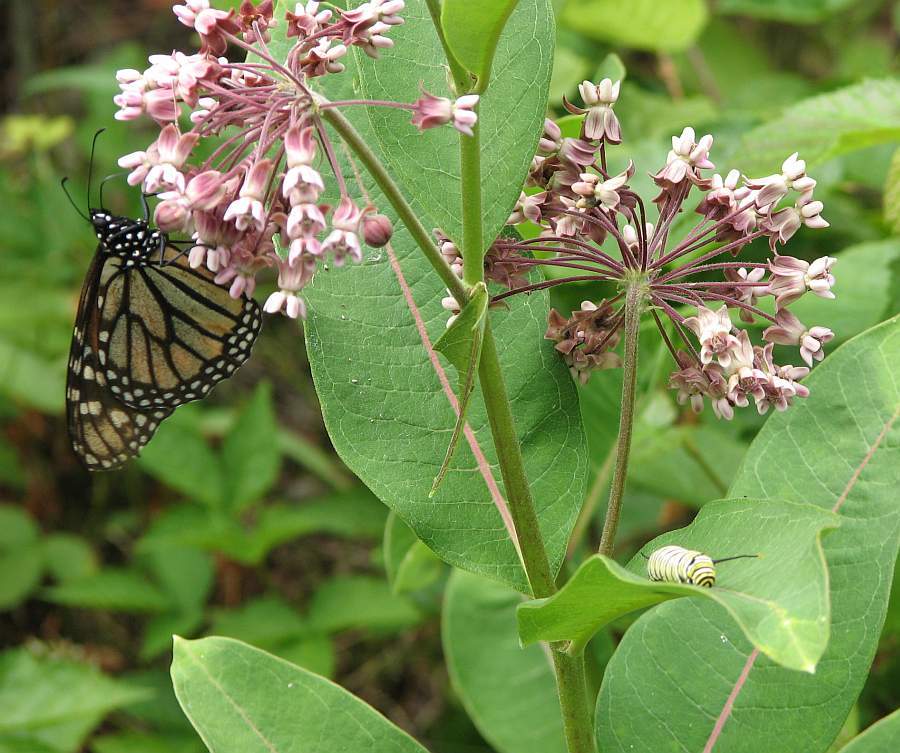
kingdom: Animalia
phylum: Arthropoda
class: Insecta
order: Lepidoptera
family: Nymphalidae
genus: Danaus
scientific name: Danaus plexippus
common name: Monarch
